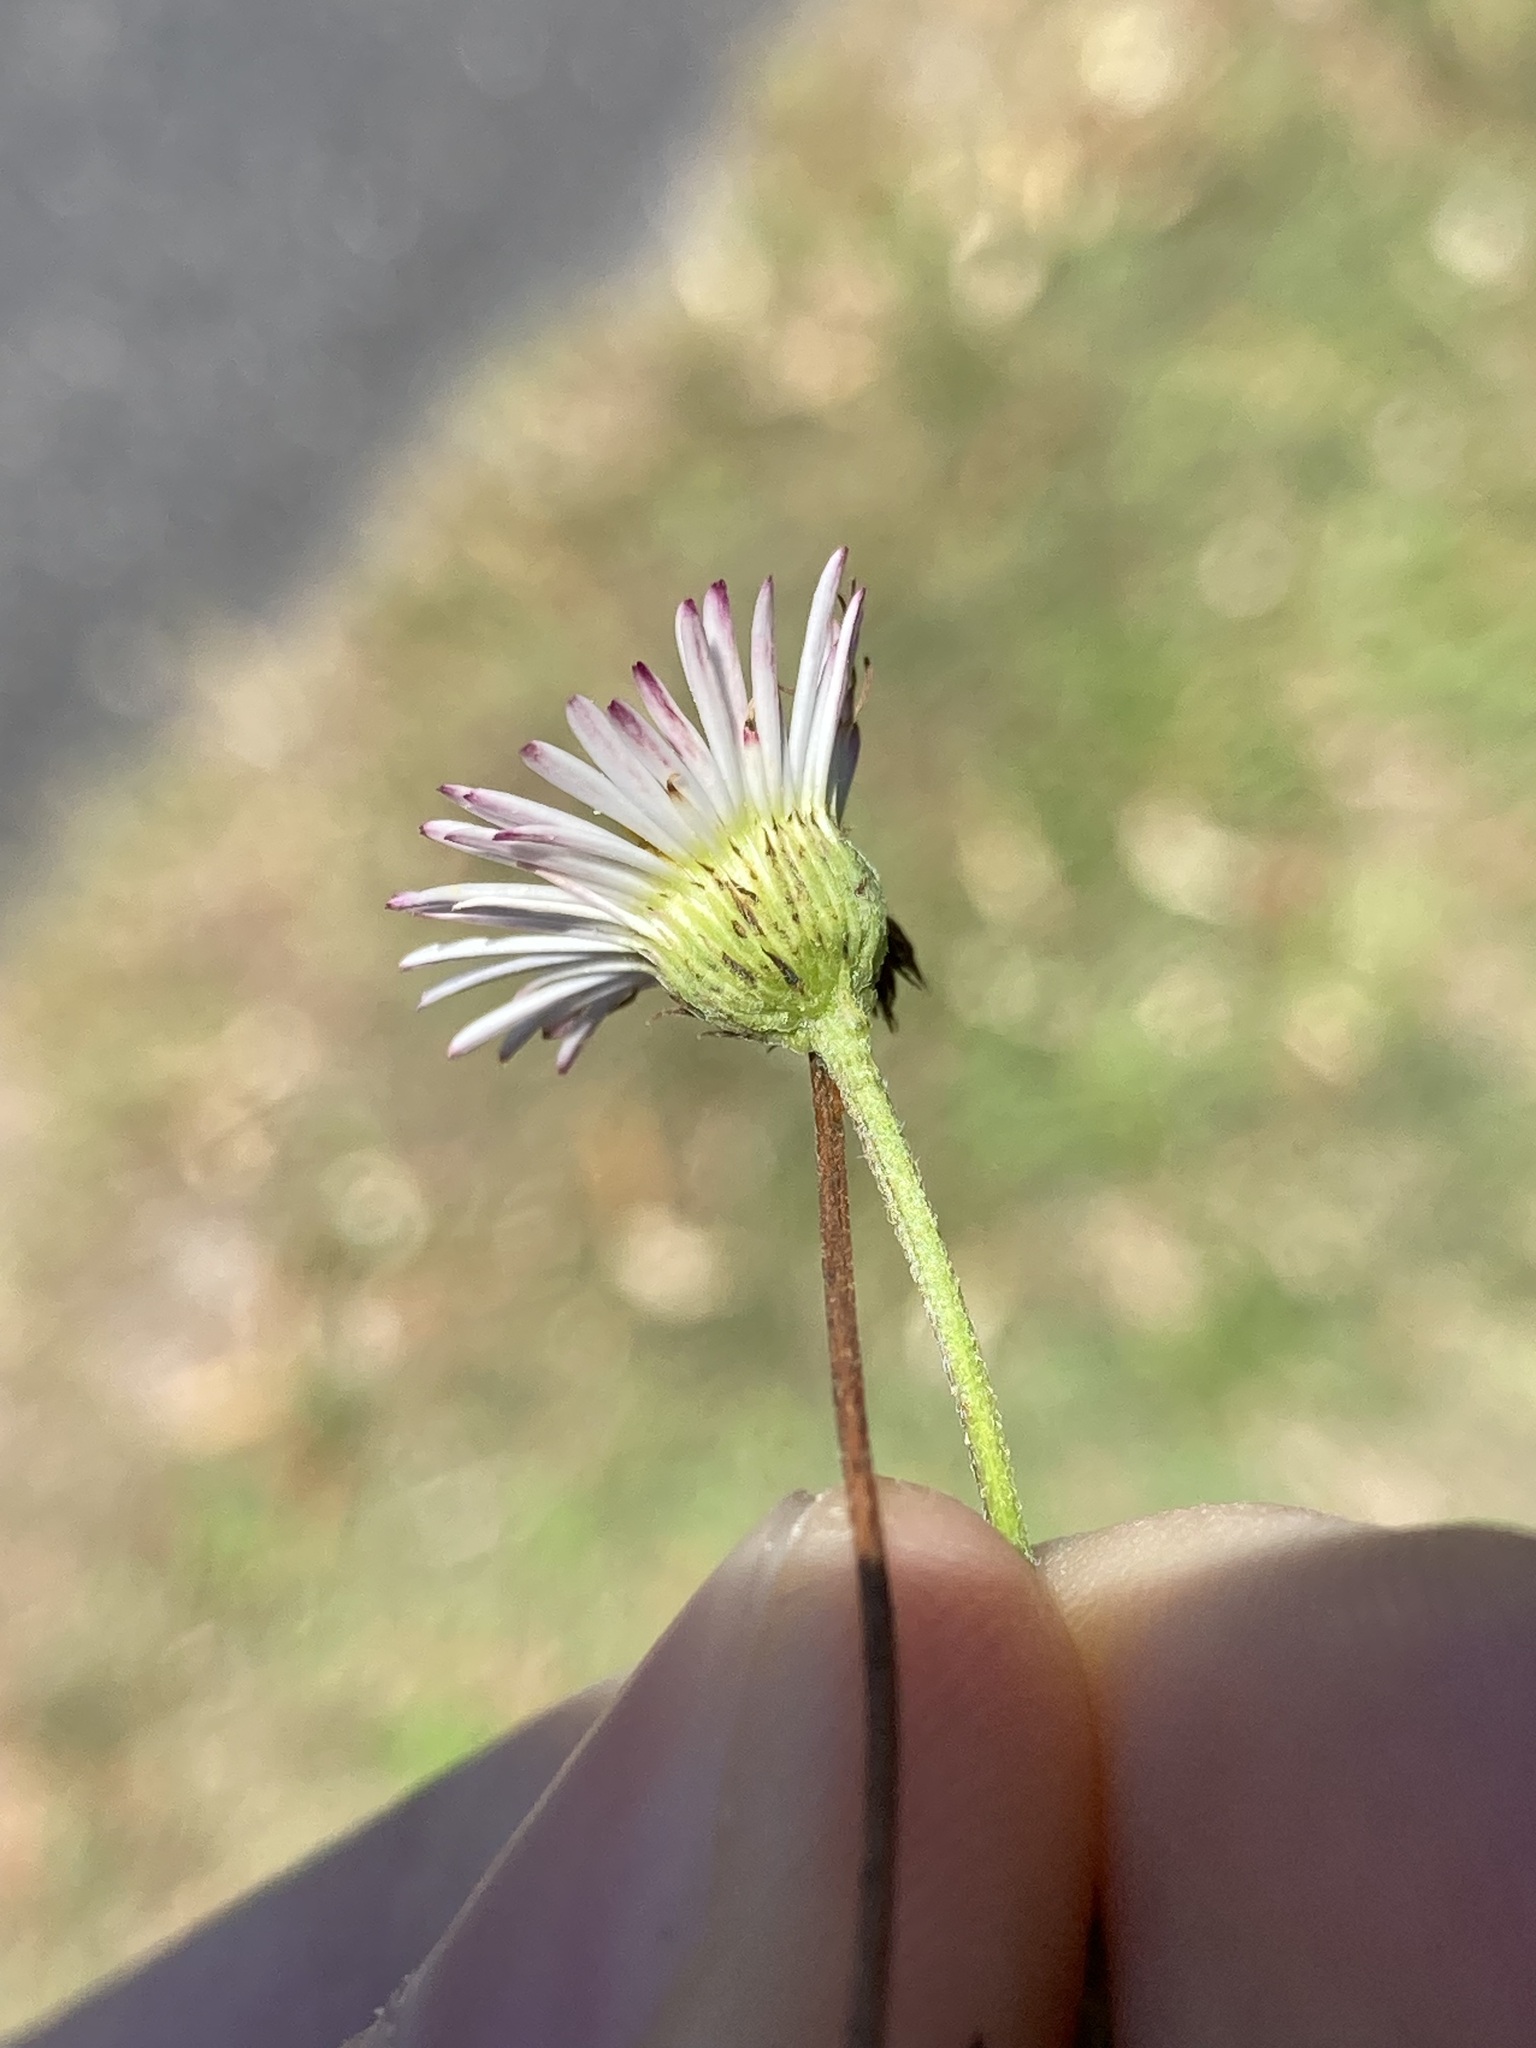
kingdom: Plantae
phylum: Tracheophyta
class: Magnoliopsida
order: Asterales
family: Asteraceae
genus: Erigeron
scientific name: Erigeron karvinskianus
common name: Mexican fleabane
